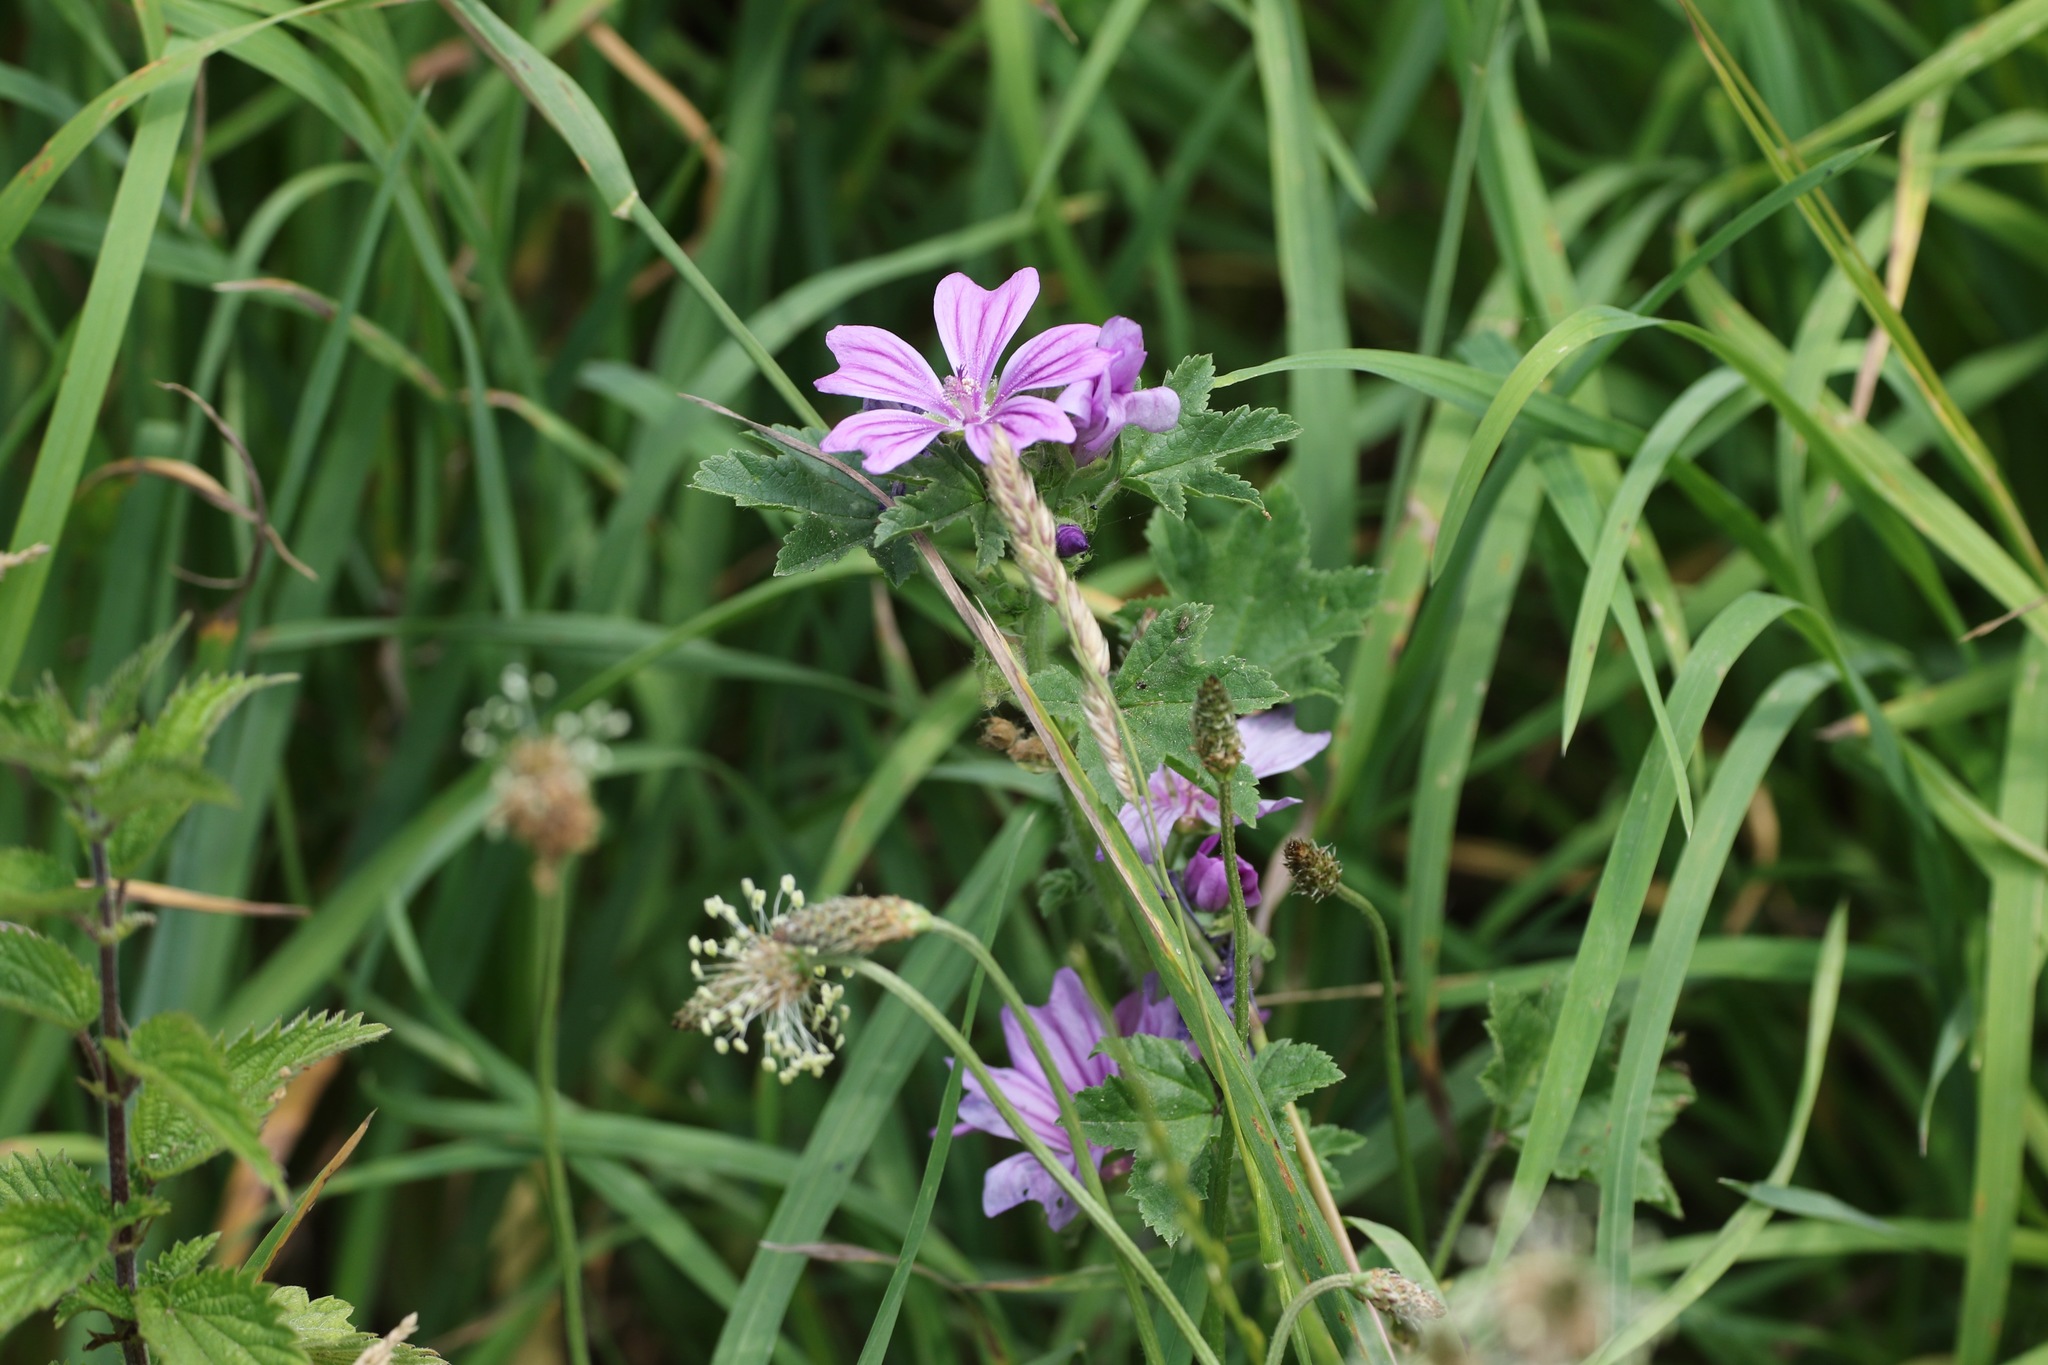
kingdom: Plantae
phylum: Tracheophyta
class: Magnoliopsida
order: Malvales
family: Malvaceae
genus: Malva
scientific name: Malva sylvestris
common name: Common mallow
